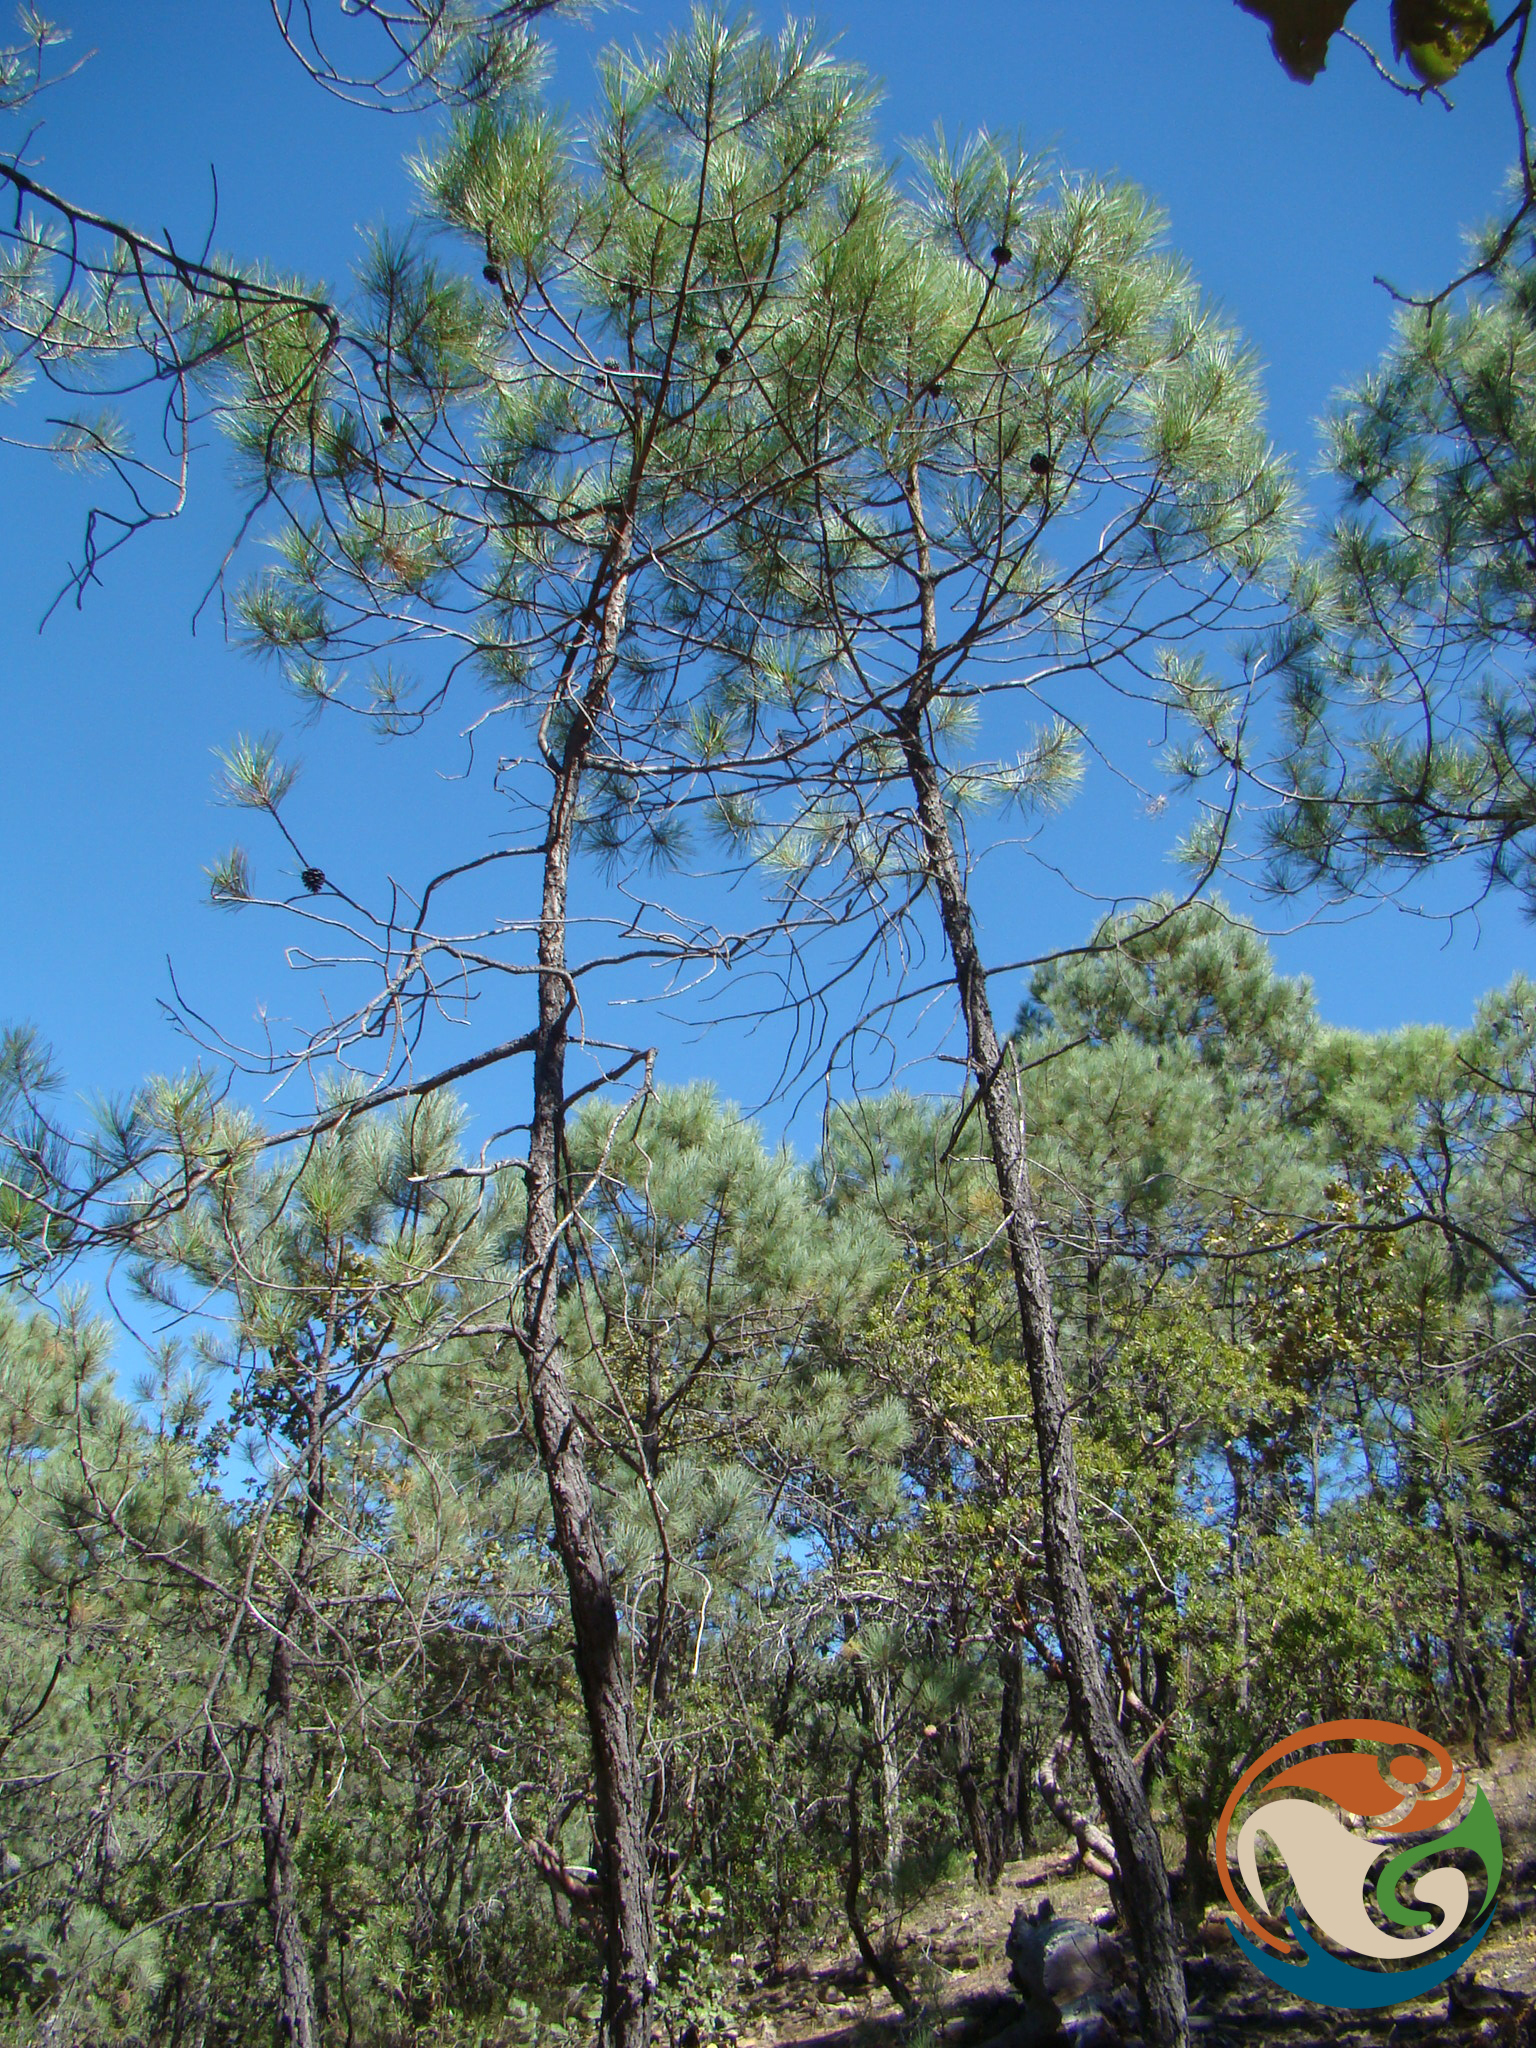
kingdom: Plantae
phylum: Tracheophyta
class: Pinopsida
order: Pinales
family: Pinaceae
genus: Pinus
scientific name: Pinus leiophylla
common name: Chihuahua pine
